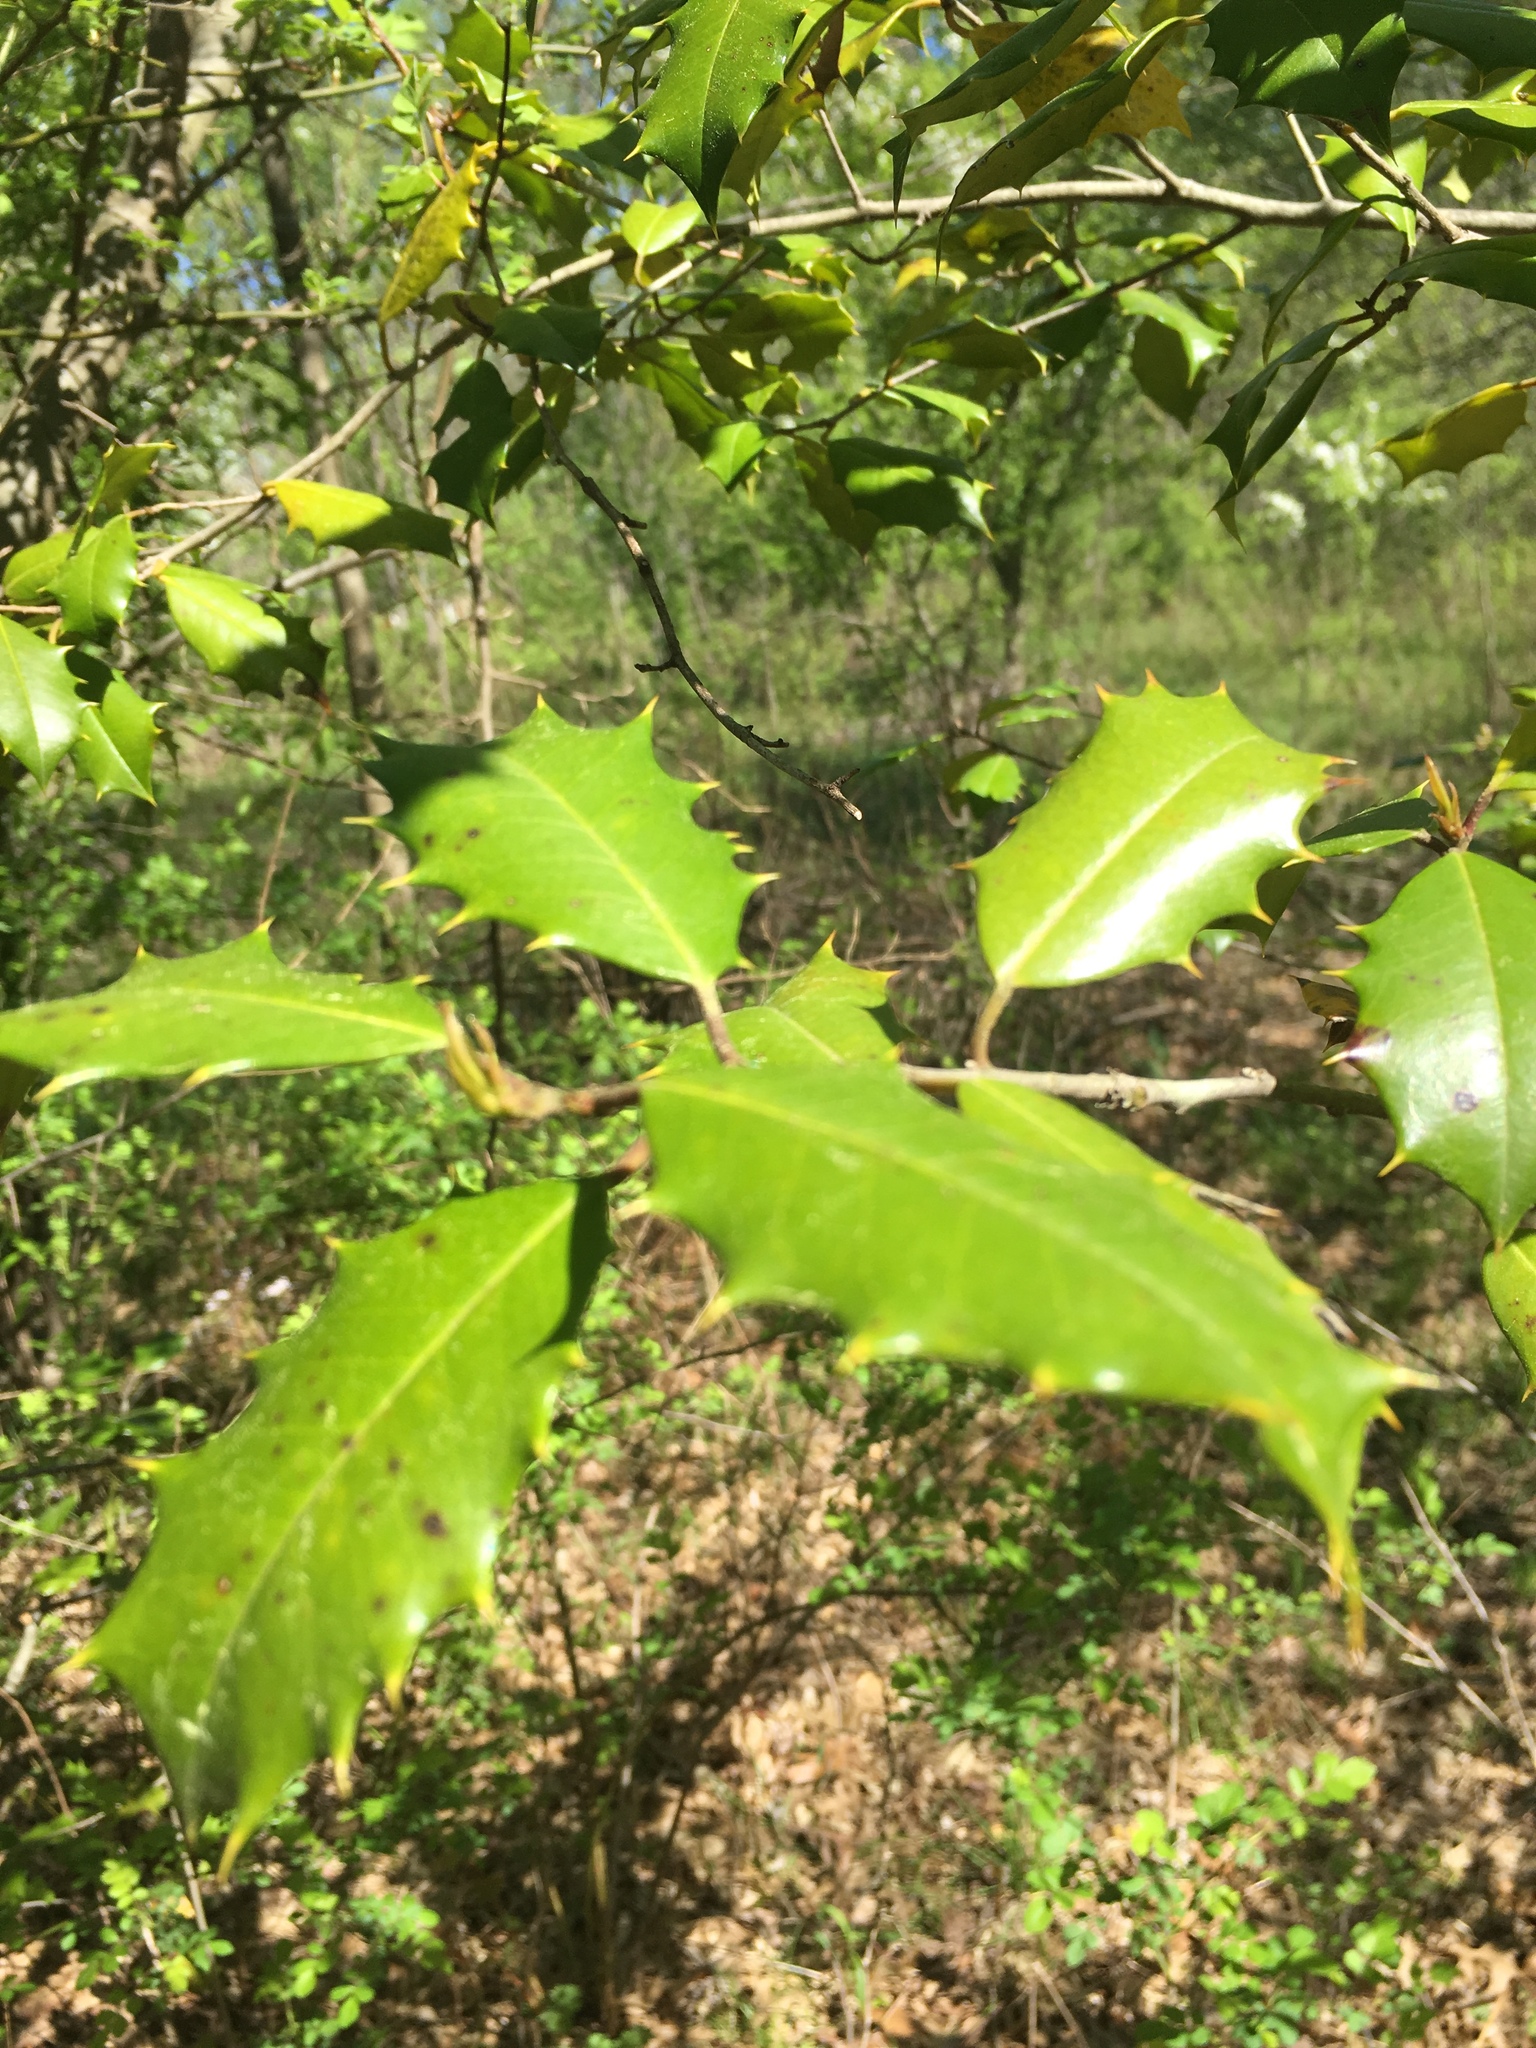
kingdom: Plantae
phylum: Tracheophyta
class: Magnoliopsida
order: Aquifoliales
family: Aquifoliaceae
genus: Ilex
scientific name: Ilex opaca
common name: American holly
